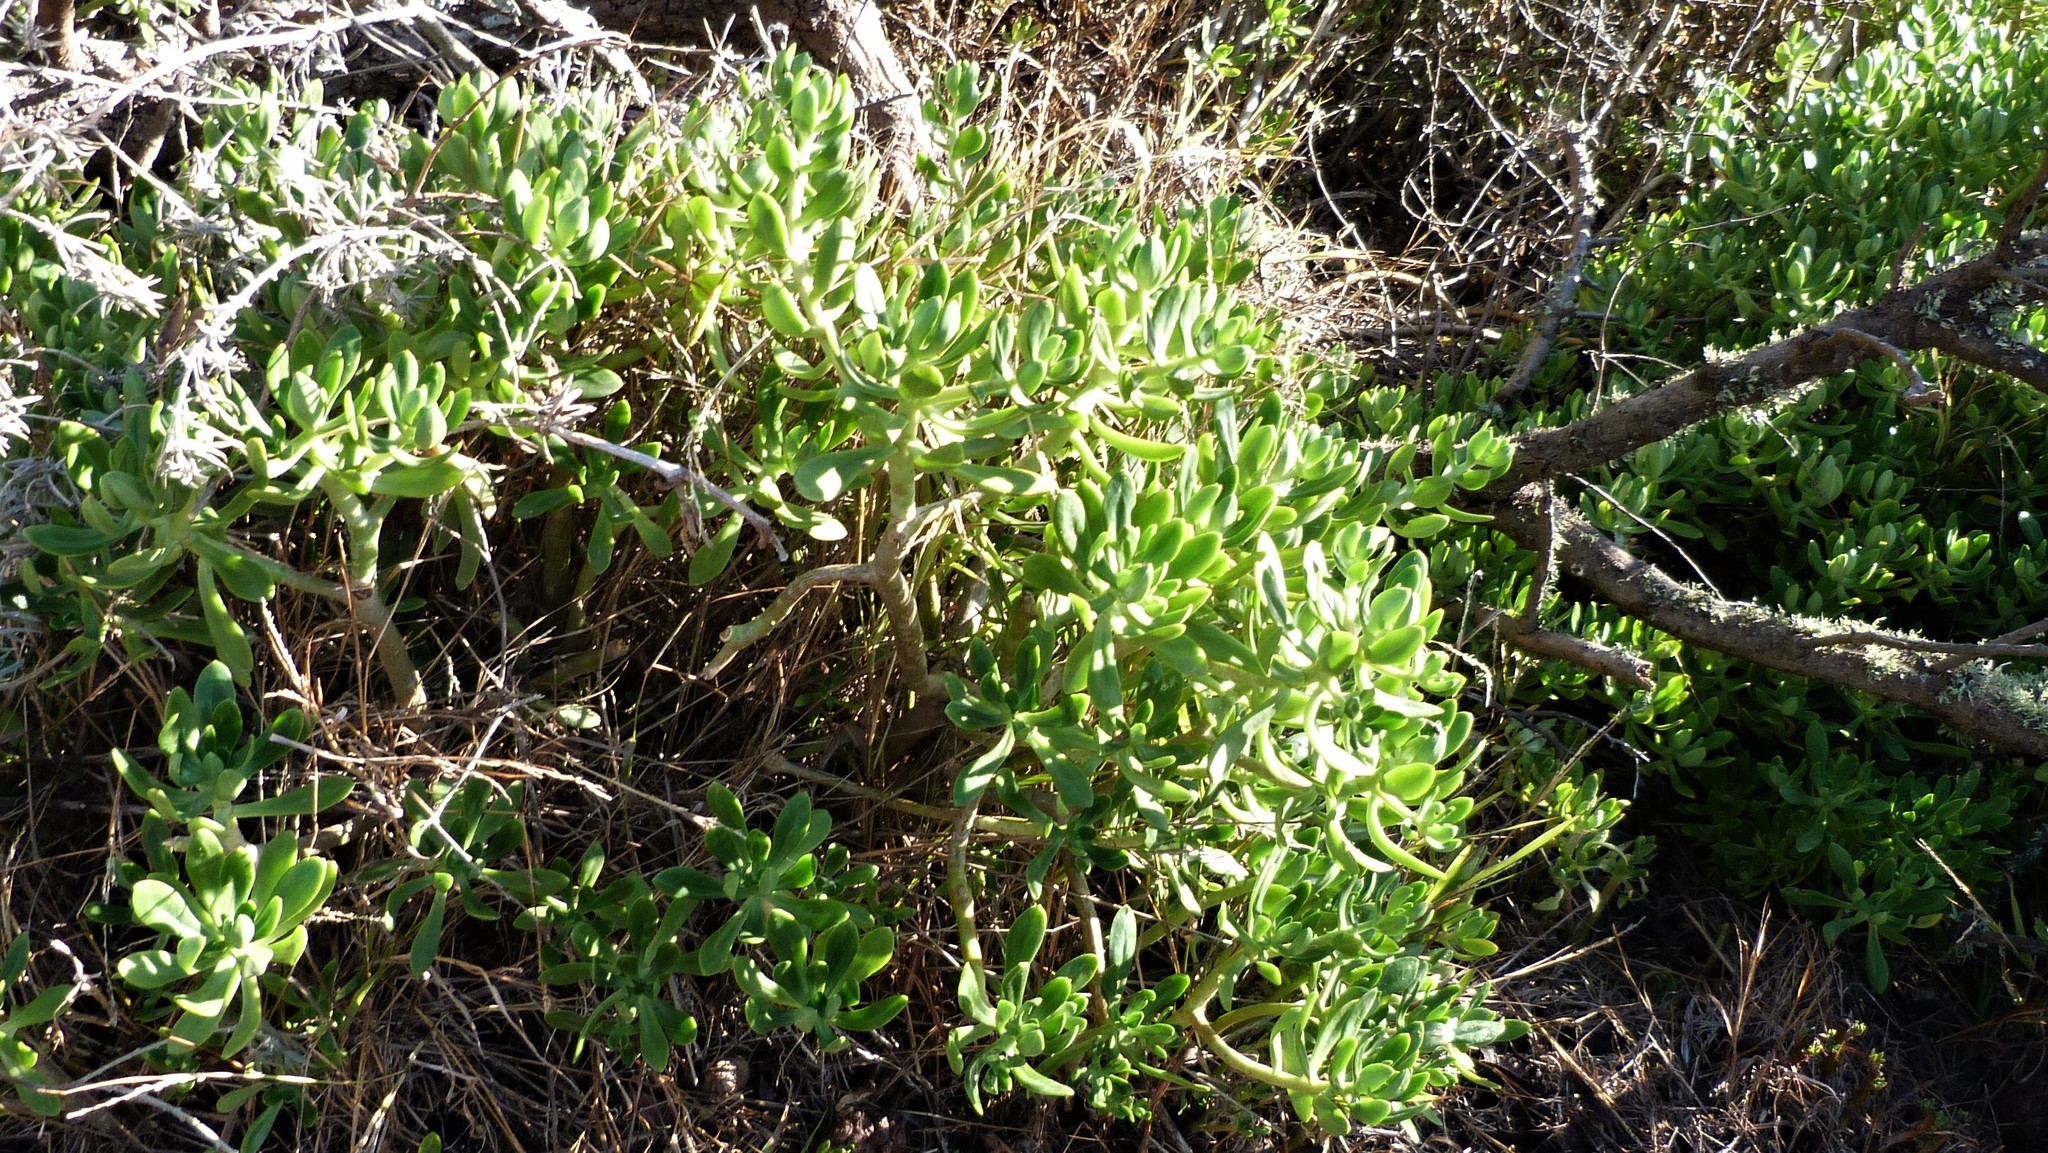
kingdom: Plantae
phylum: Tracheophyta
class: Magnoliopsida
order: Saxifragales
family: Crassulaceae
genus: Sedum
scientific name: Sedum praealtum
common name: Greater mexican-stonecrop
